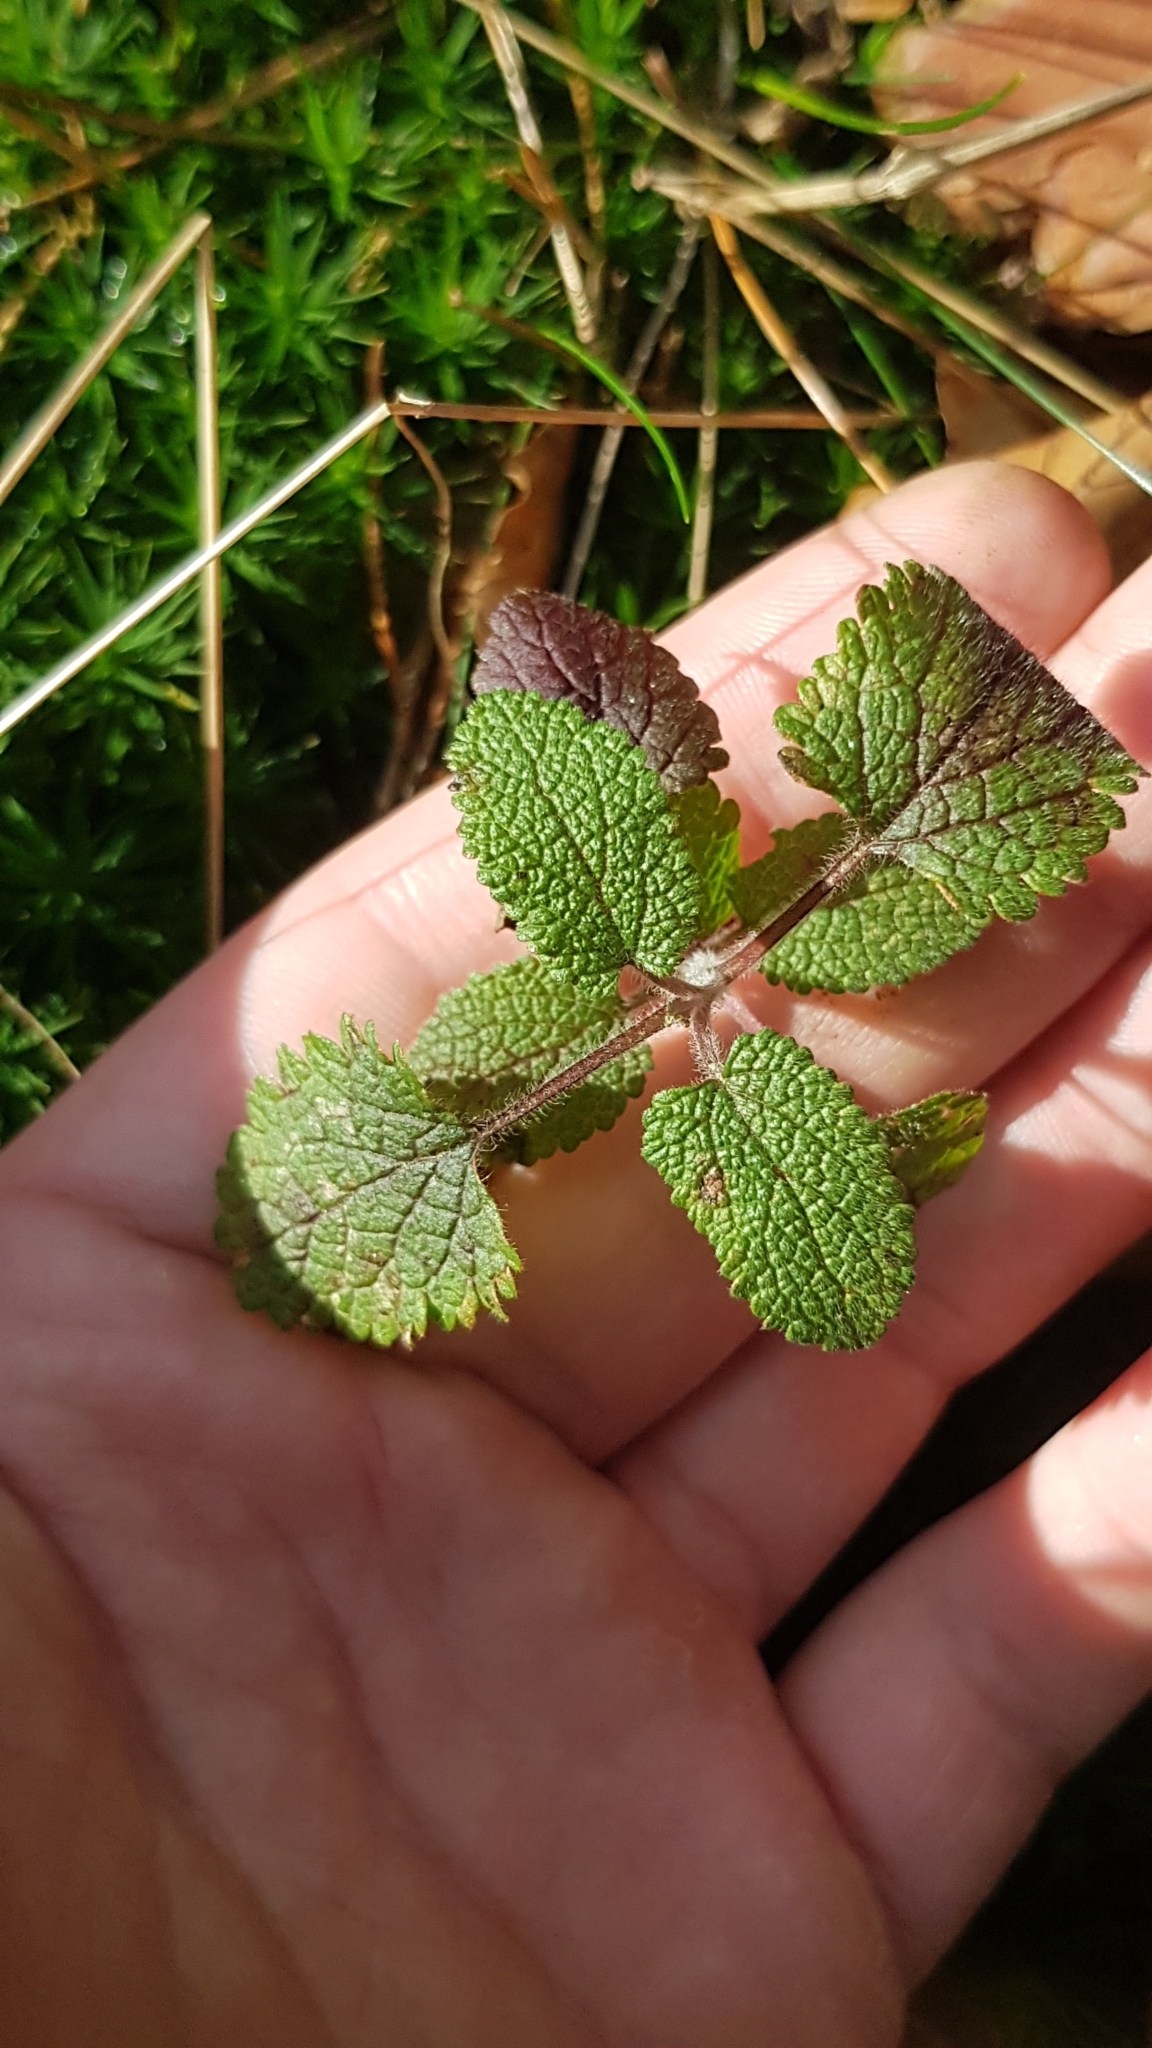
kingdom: Plantae
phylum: Tracheophyta
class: Magnoliopsida
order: Lamiales
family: Lamiaceae
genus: Teucrium
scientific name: Teucrium scorodonia
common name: Woodland germander
